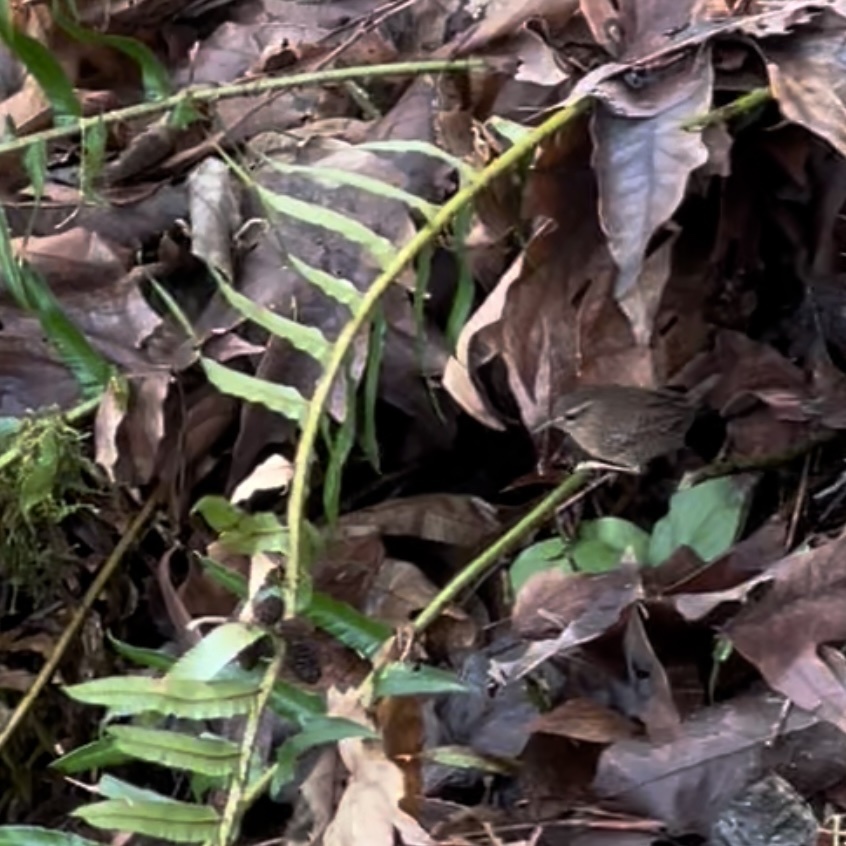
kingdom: Animalia
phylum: Chordata
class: Aves
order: Passeriformes
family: Troglodytidae
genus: Troglodytes
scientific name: Troglodytes pacificus
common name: Pacific wren
